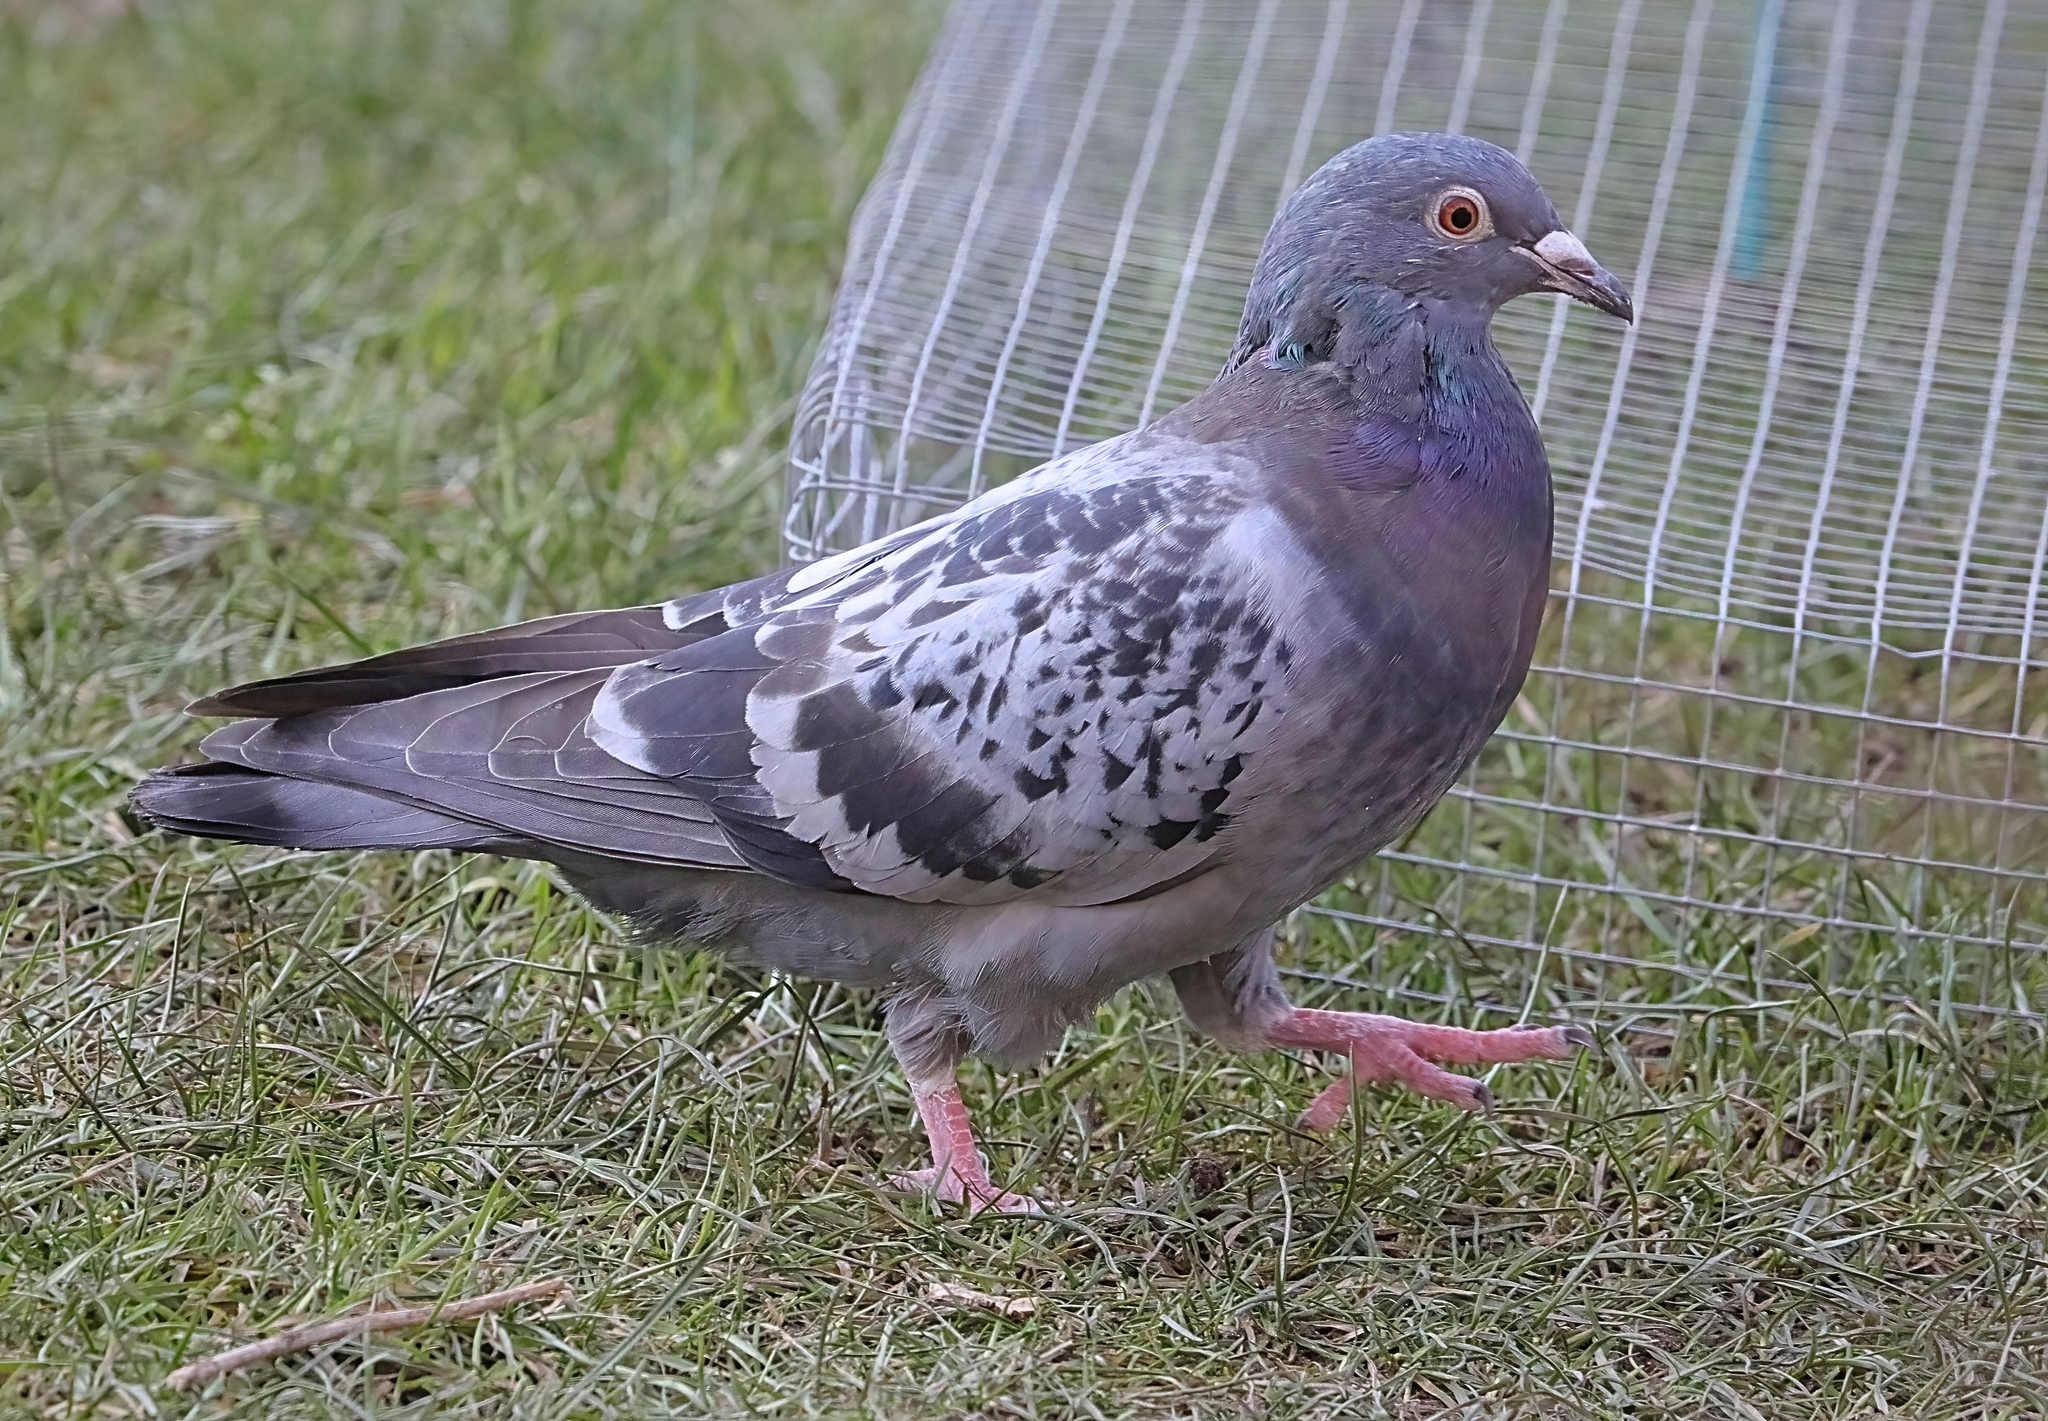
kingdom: Animalia
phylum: Chordata
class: Aves
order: Columbiformes
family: Columbidae
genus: Columba
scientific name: Columba livia
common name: Rock pigeon
